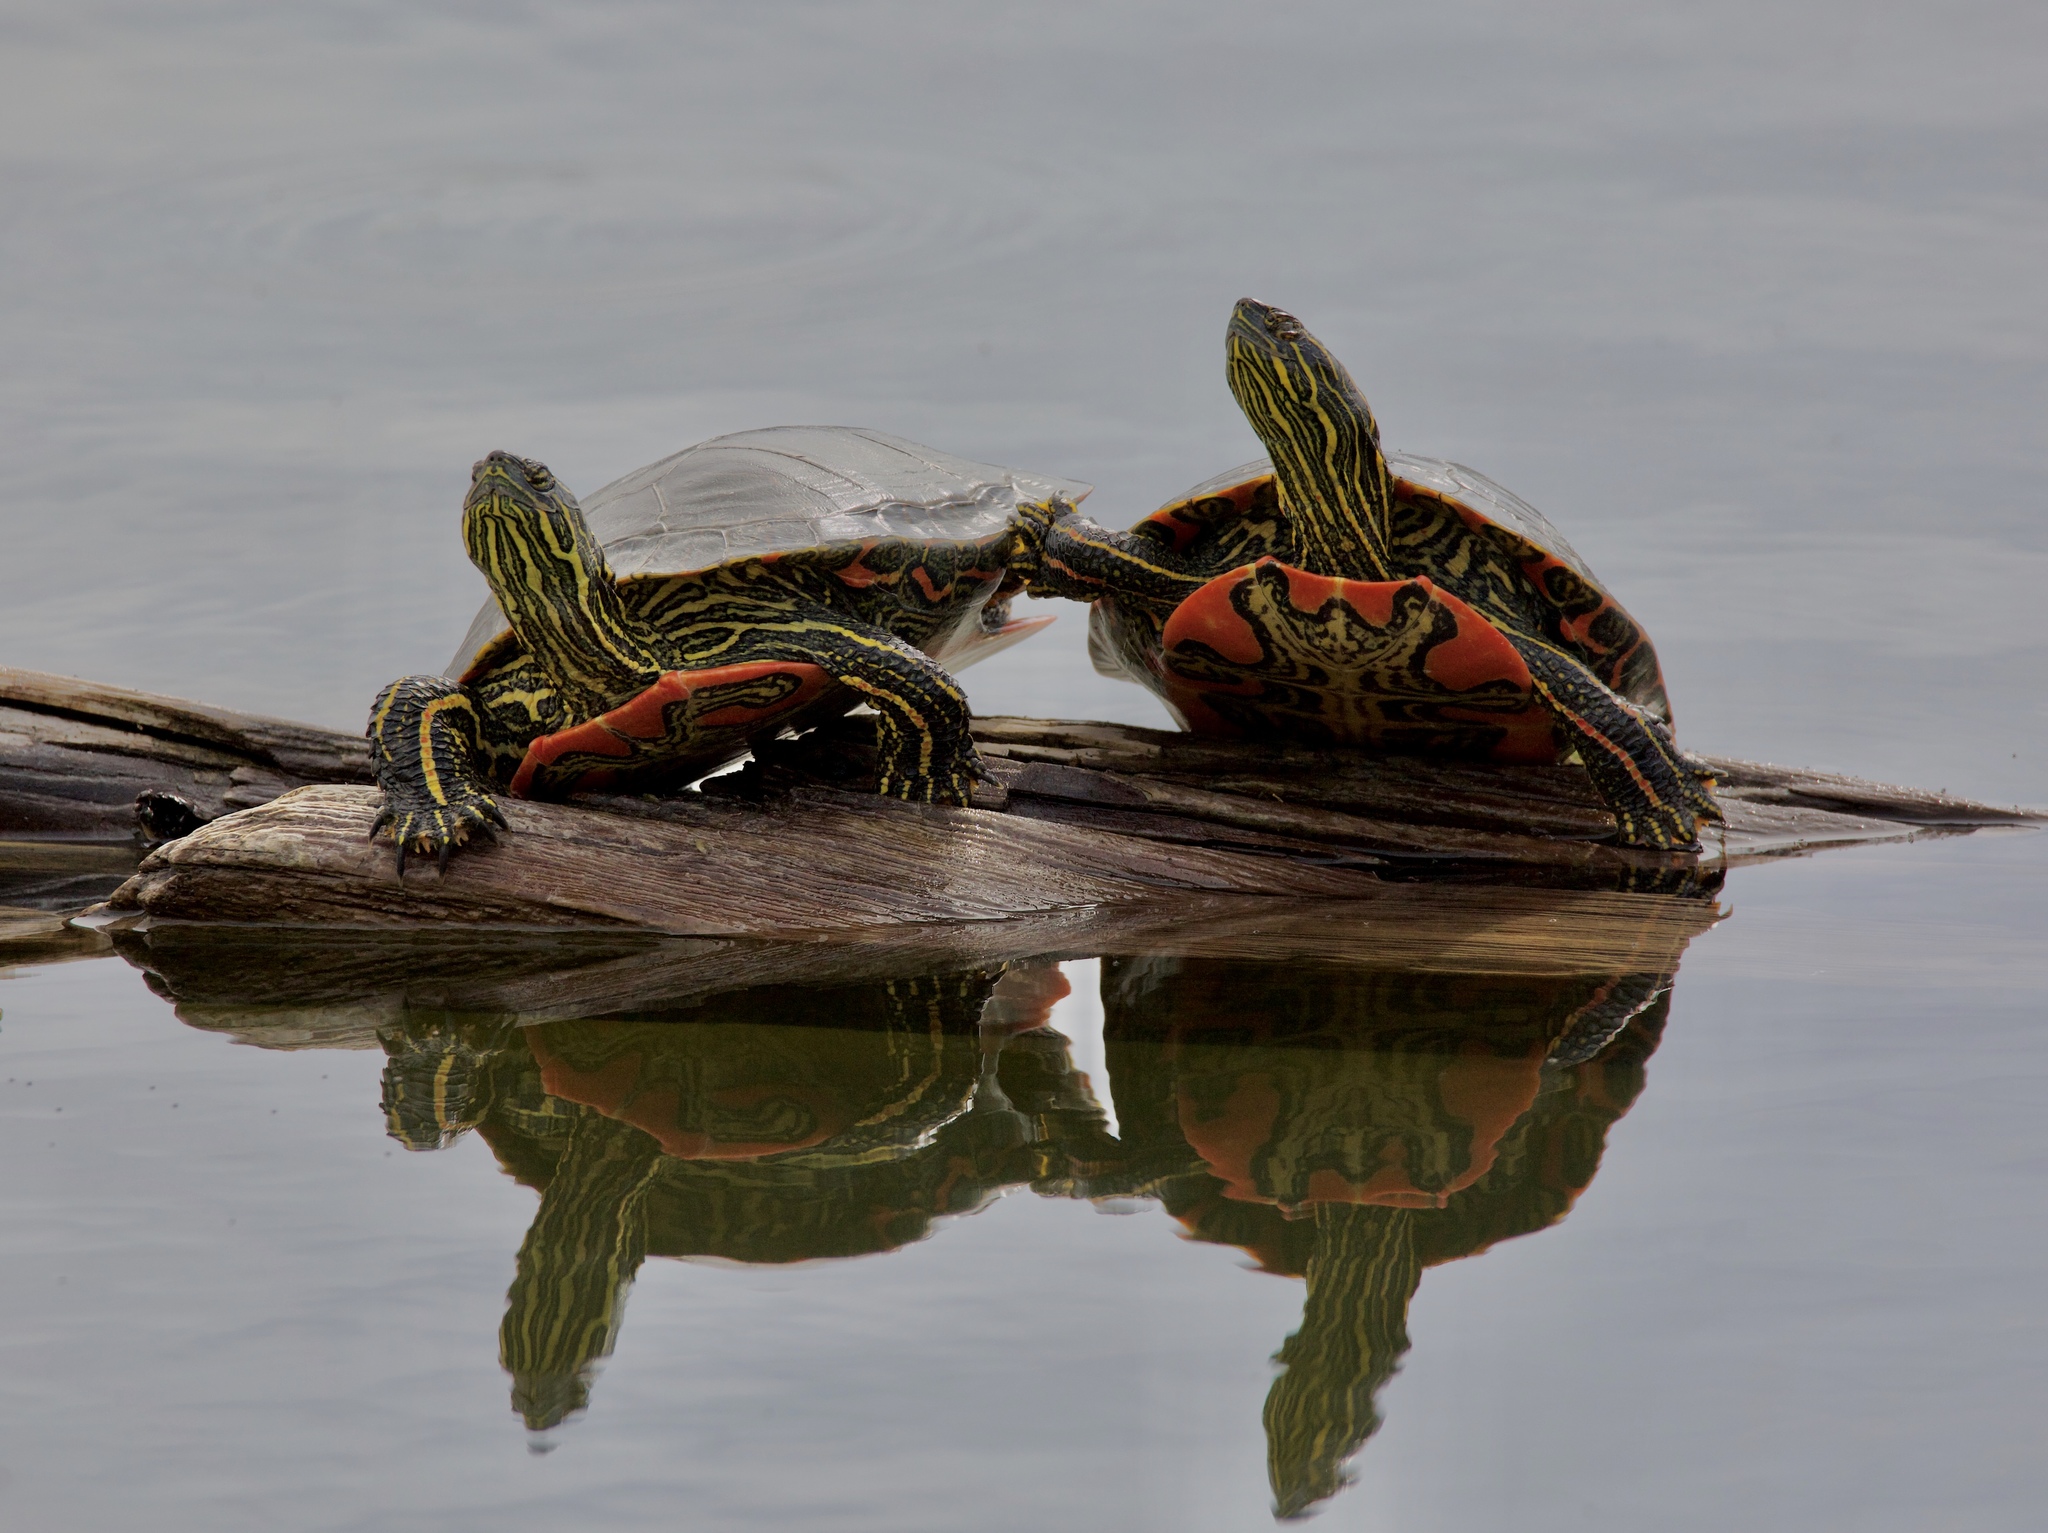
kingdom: Animalia
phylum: Chordata
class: Testudines
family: Emydidae
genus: Chrysemys
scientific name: Chrysemys picta
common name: Painted turtle
